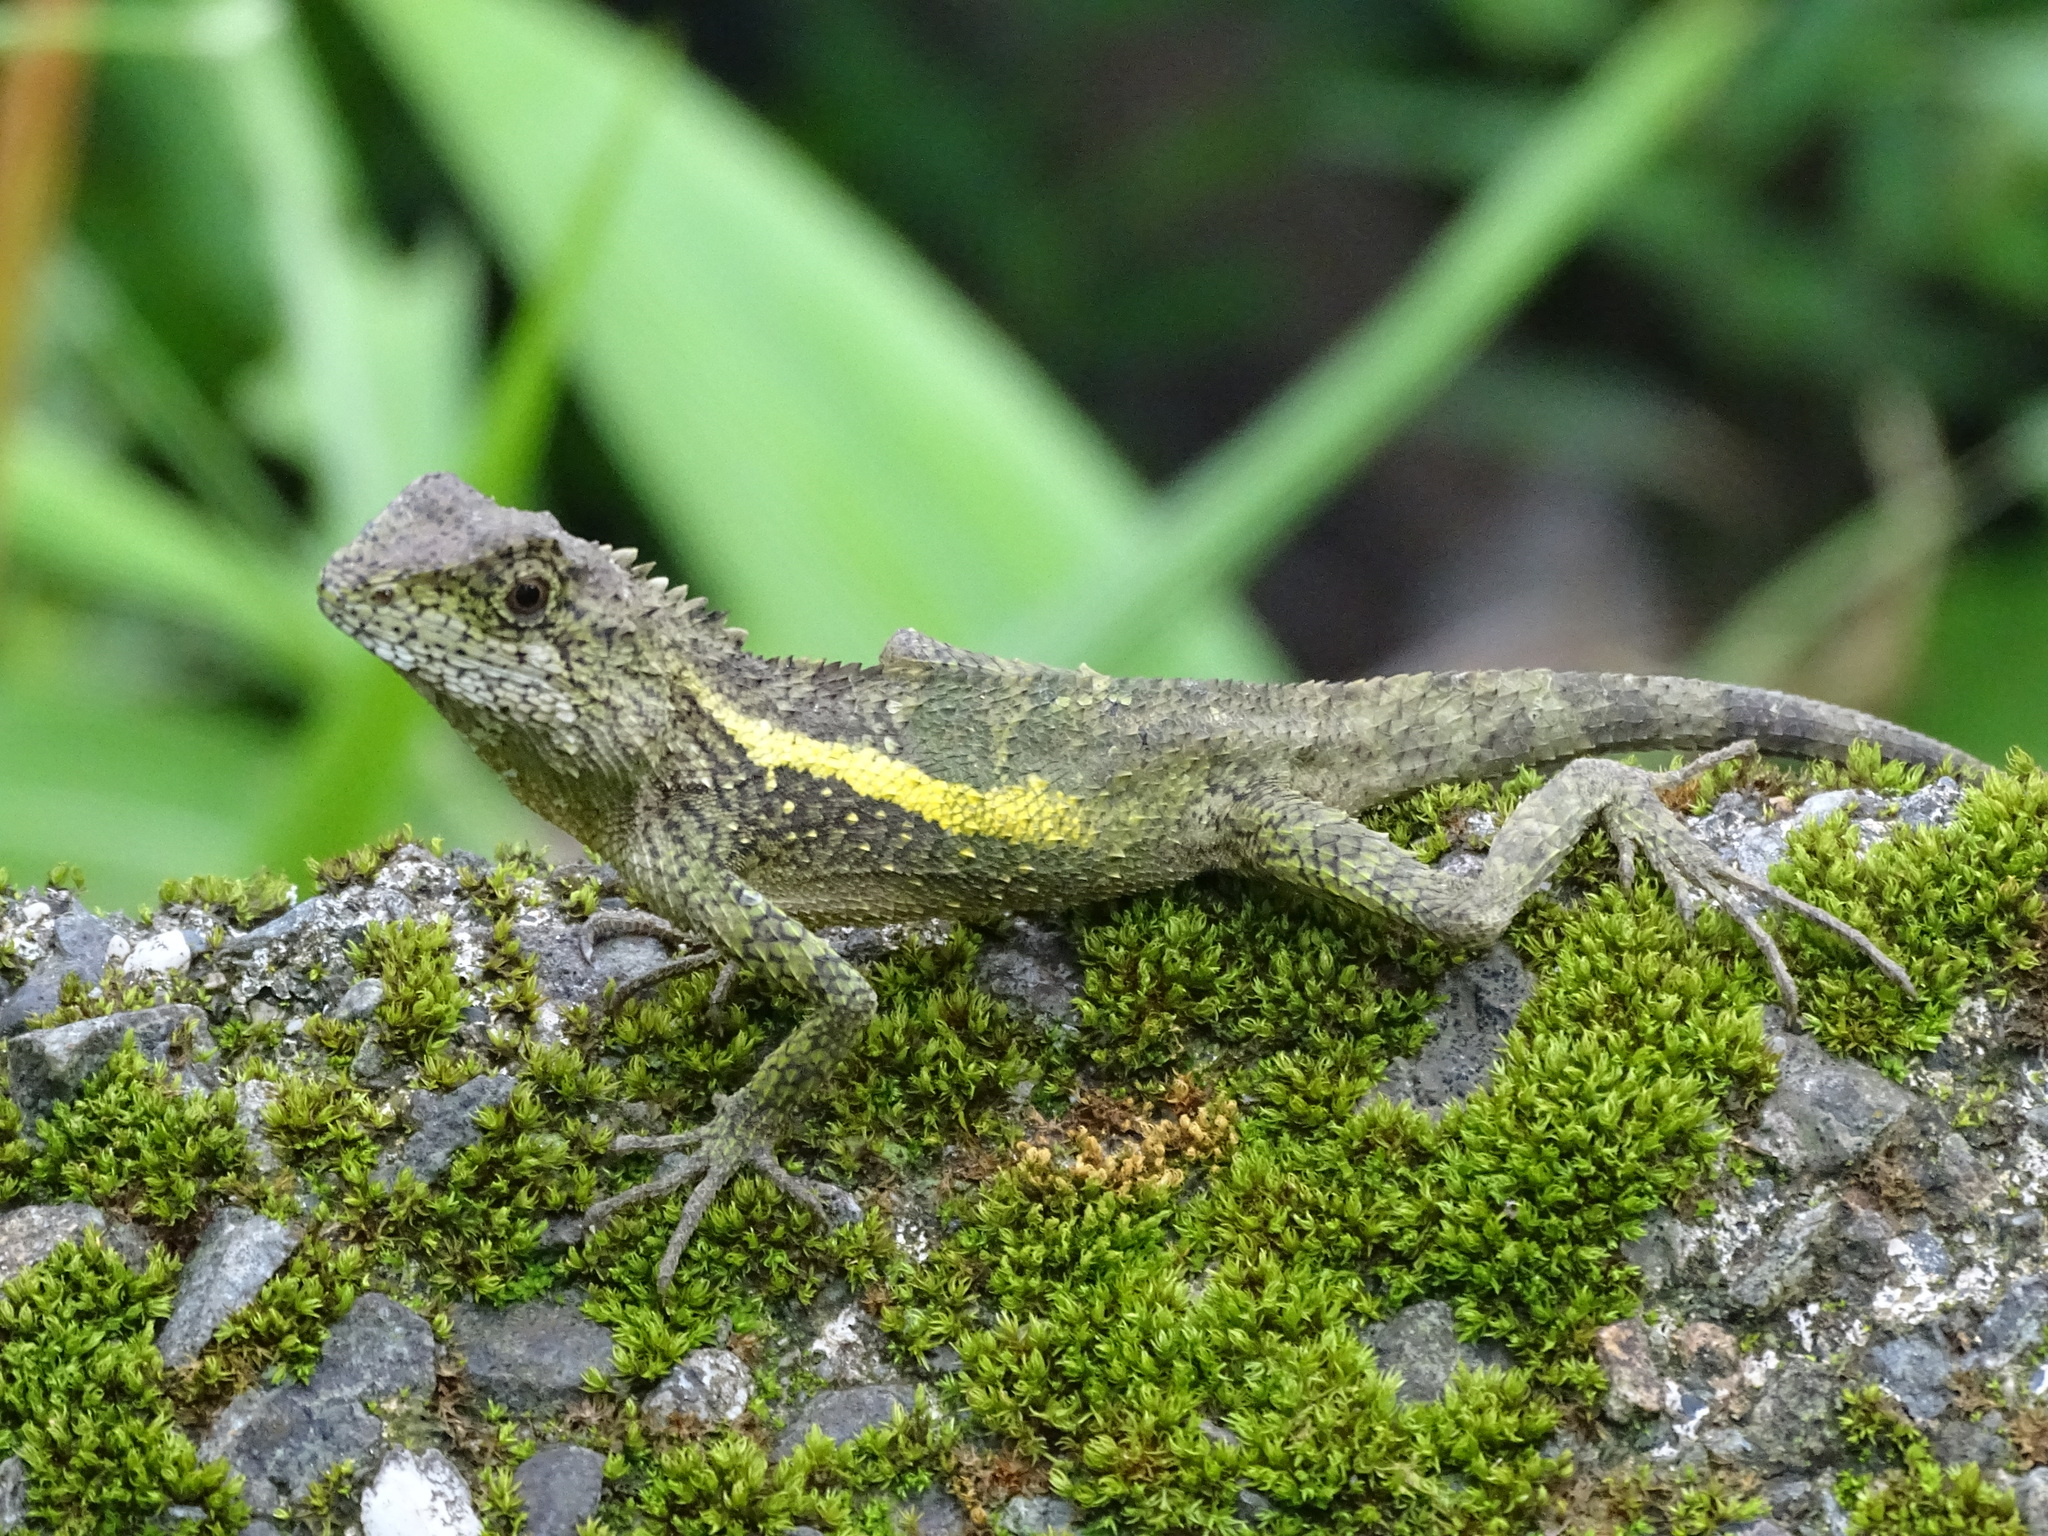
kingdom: Animalia
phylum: Chordata
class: Squamata
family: Agamidae
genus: Diploderma
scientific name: Diploderma swinhonis
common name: Taiwan japalure
